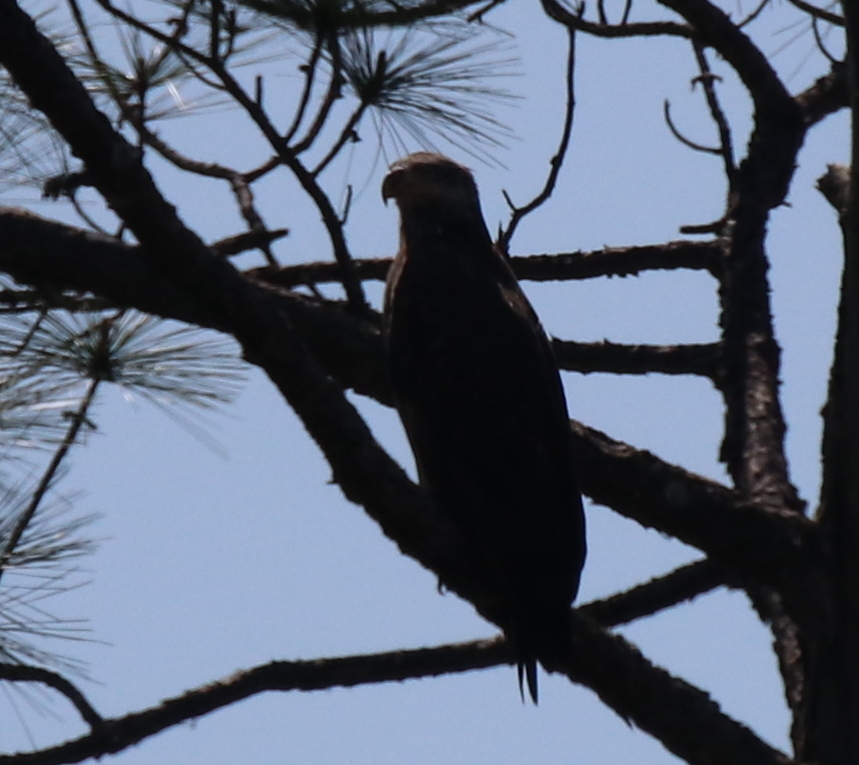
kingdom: Animalia
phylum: Chordata
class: Aves
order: Accipitriformes
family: Accipitridae
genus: Haliaeetus
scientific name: Haliaeetus leucocephalus
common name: Bald eagle
